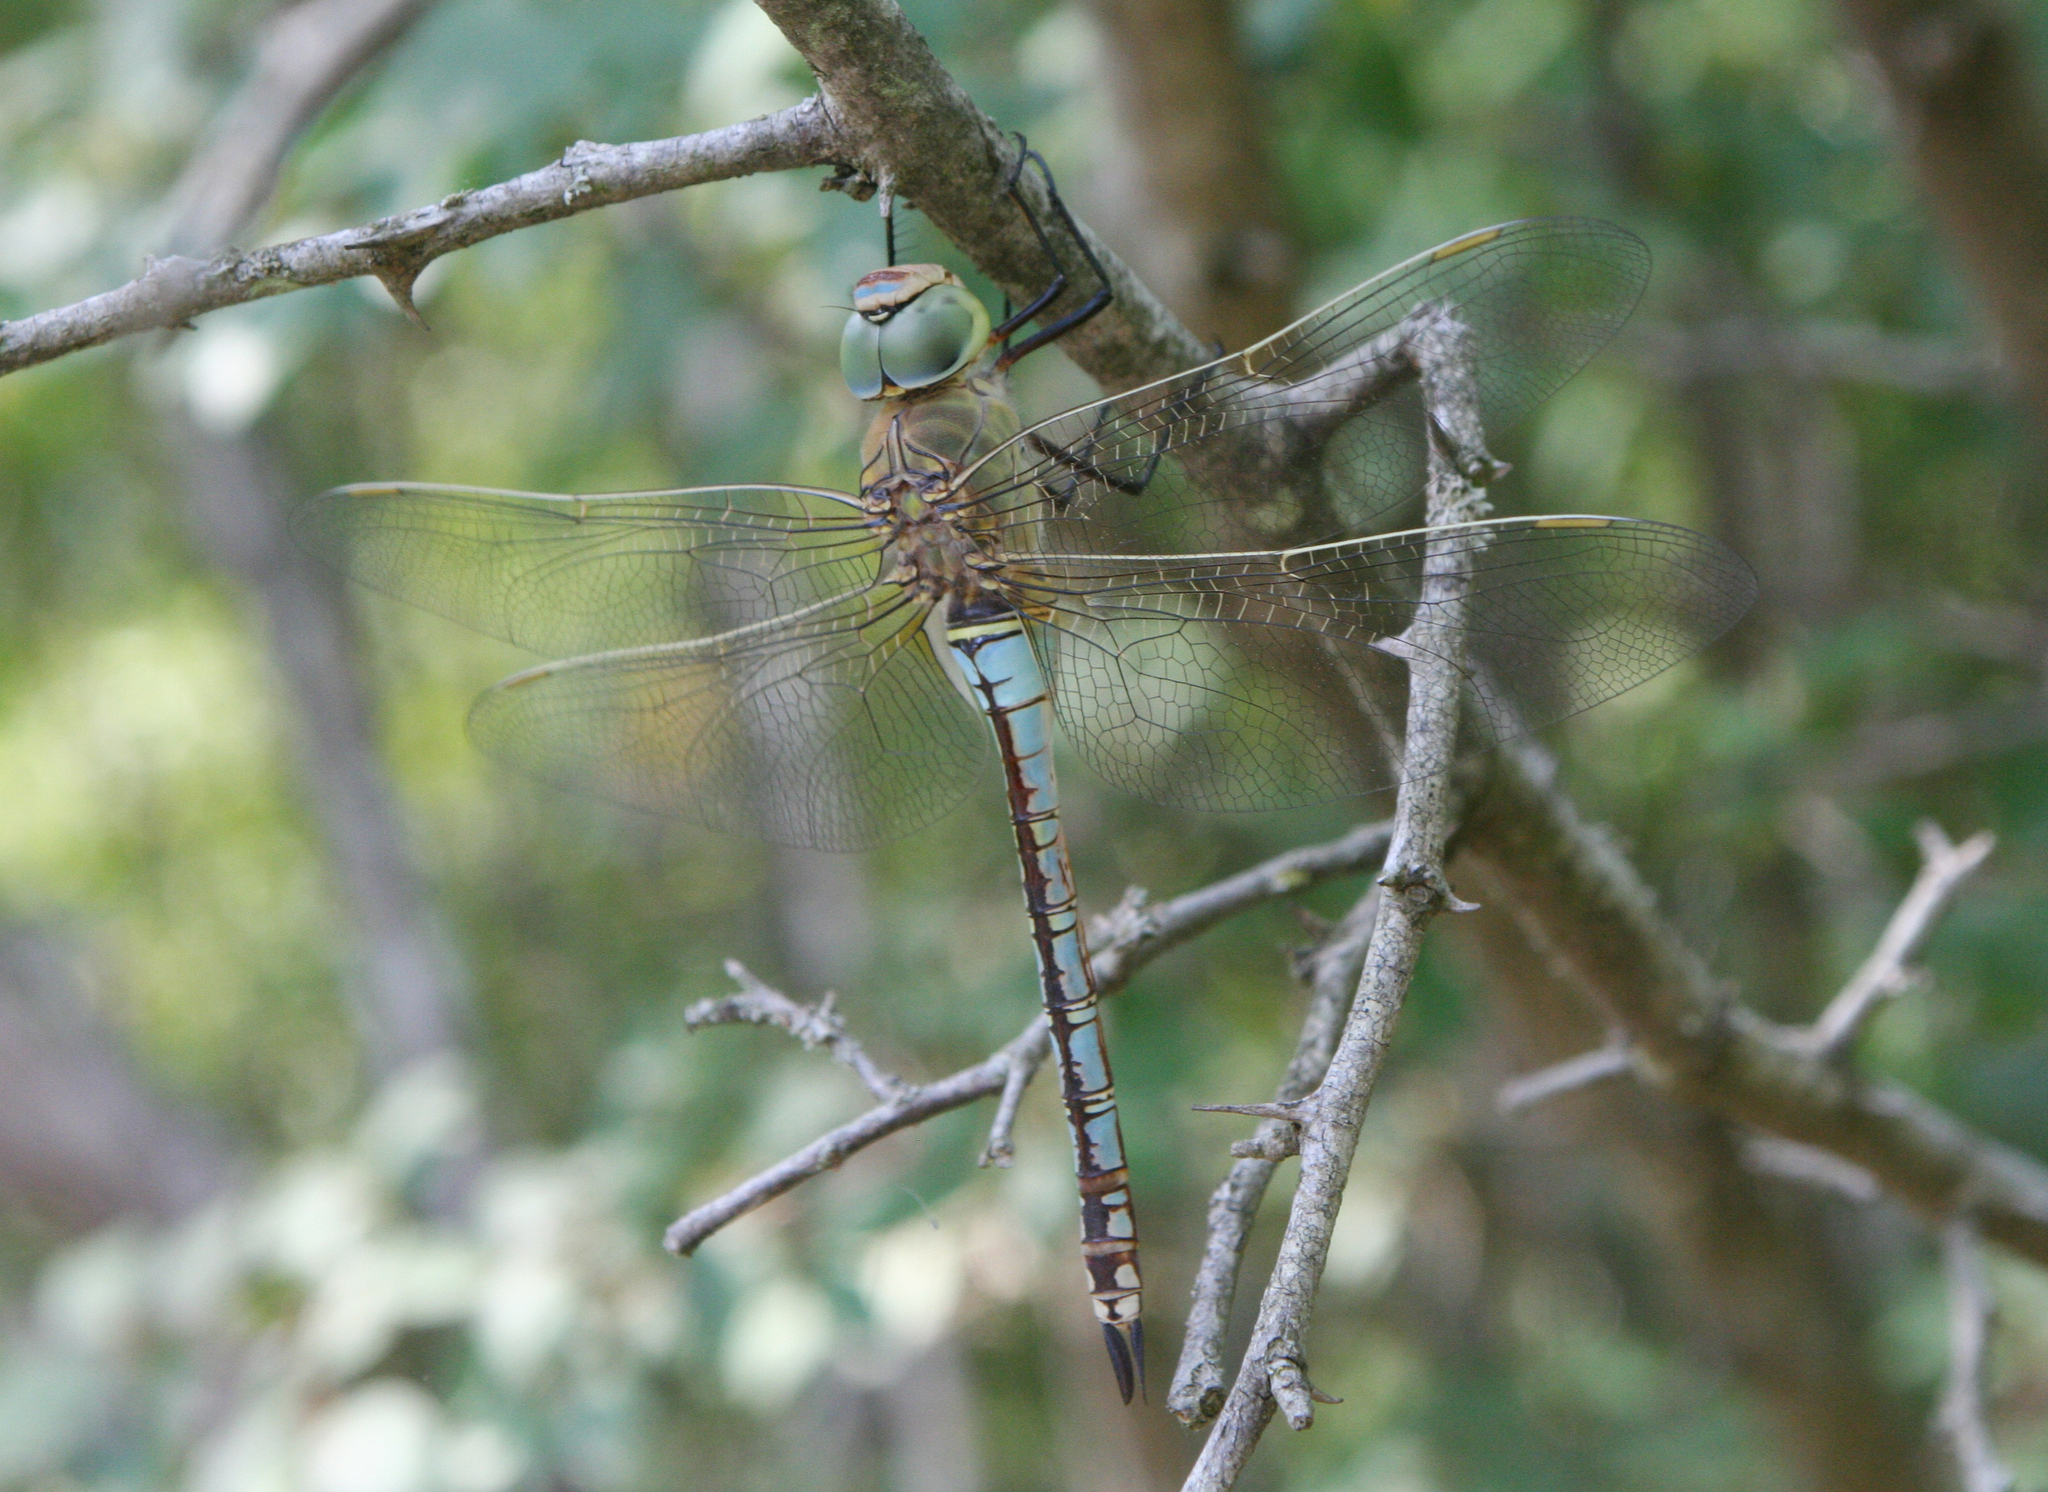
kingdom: Animalia
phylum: Arthropoda
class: Insecta
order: Odonata
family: Aeshnidae
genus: Anax
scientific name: Anax parthenope
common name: Lesser emperor
